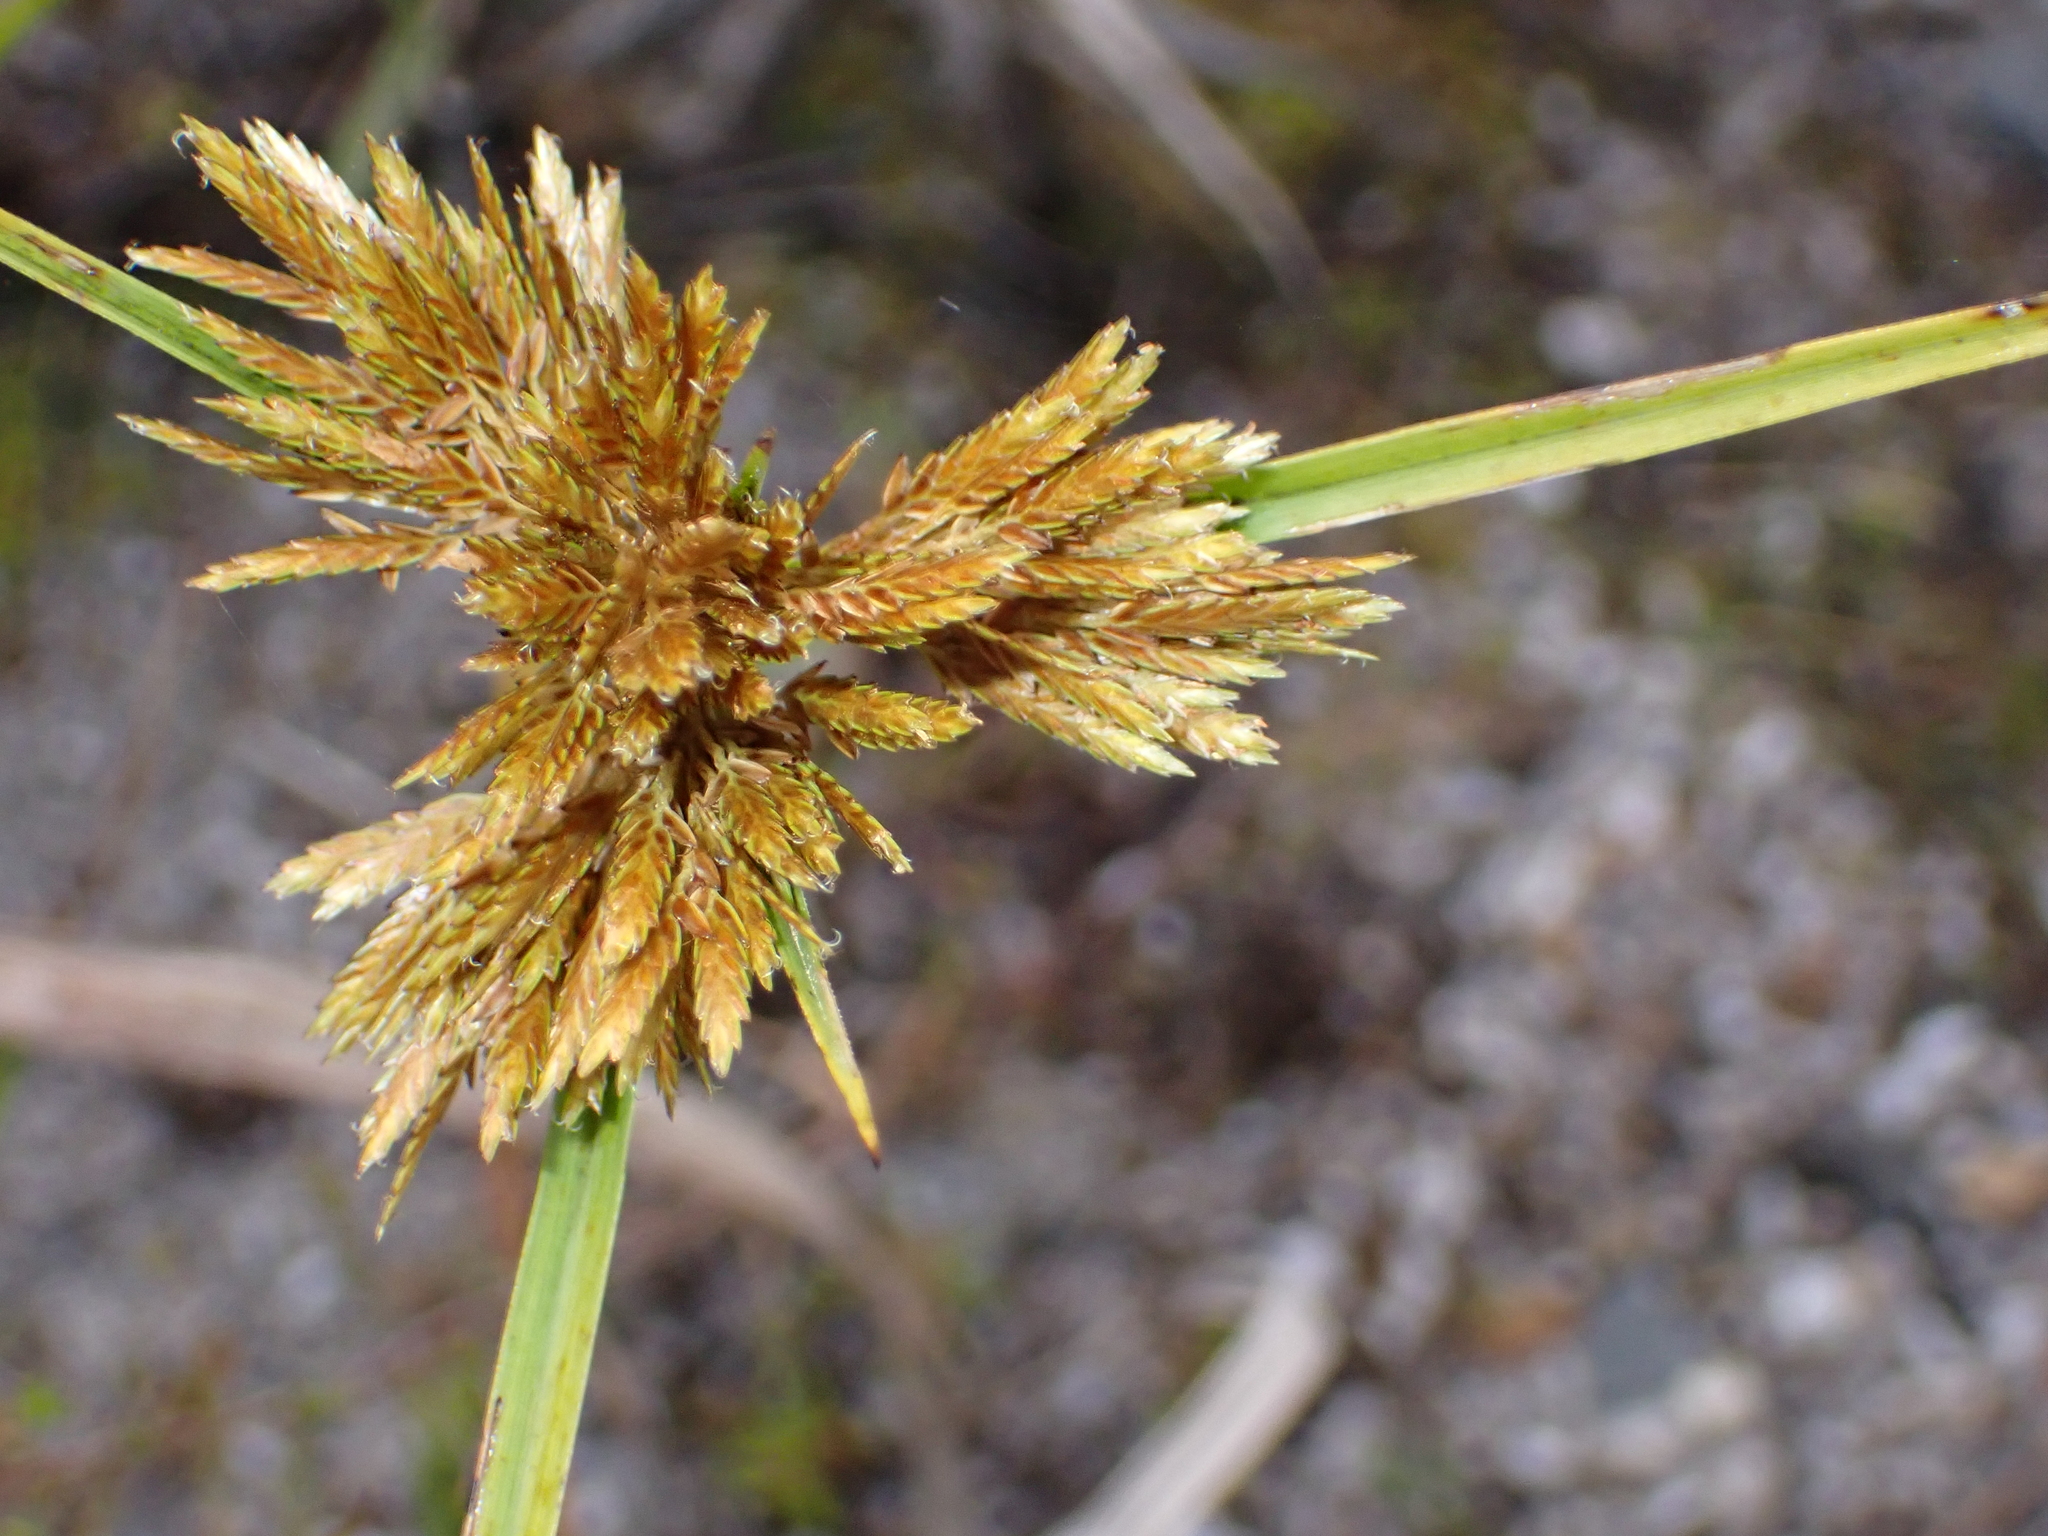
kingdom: Plantae
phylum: Tracheophyta
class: Liliopsida
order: Poales
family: Cyperaceae
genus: Cyperus
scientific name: Cyperus polystachyos
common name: Bunchy flat sedge
